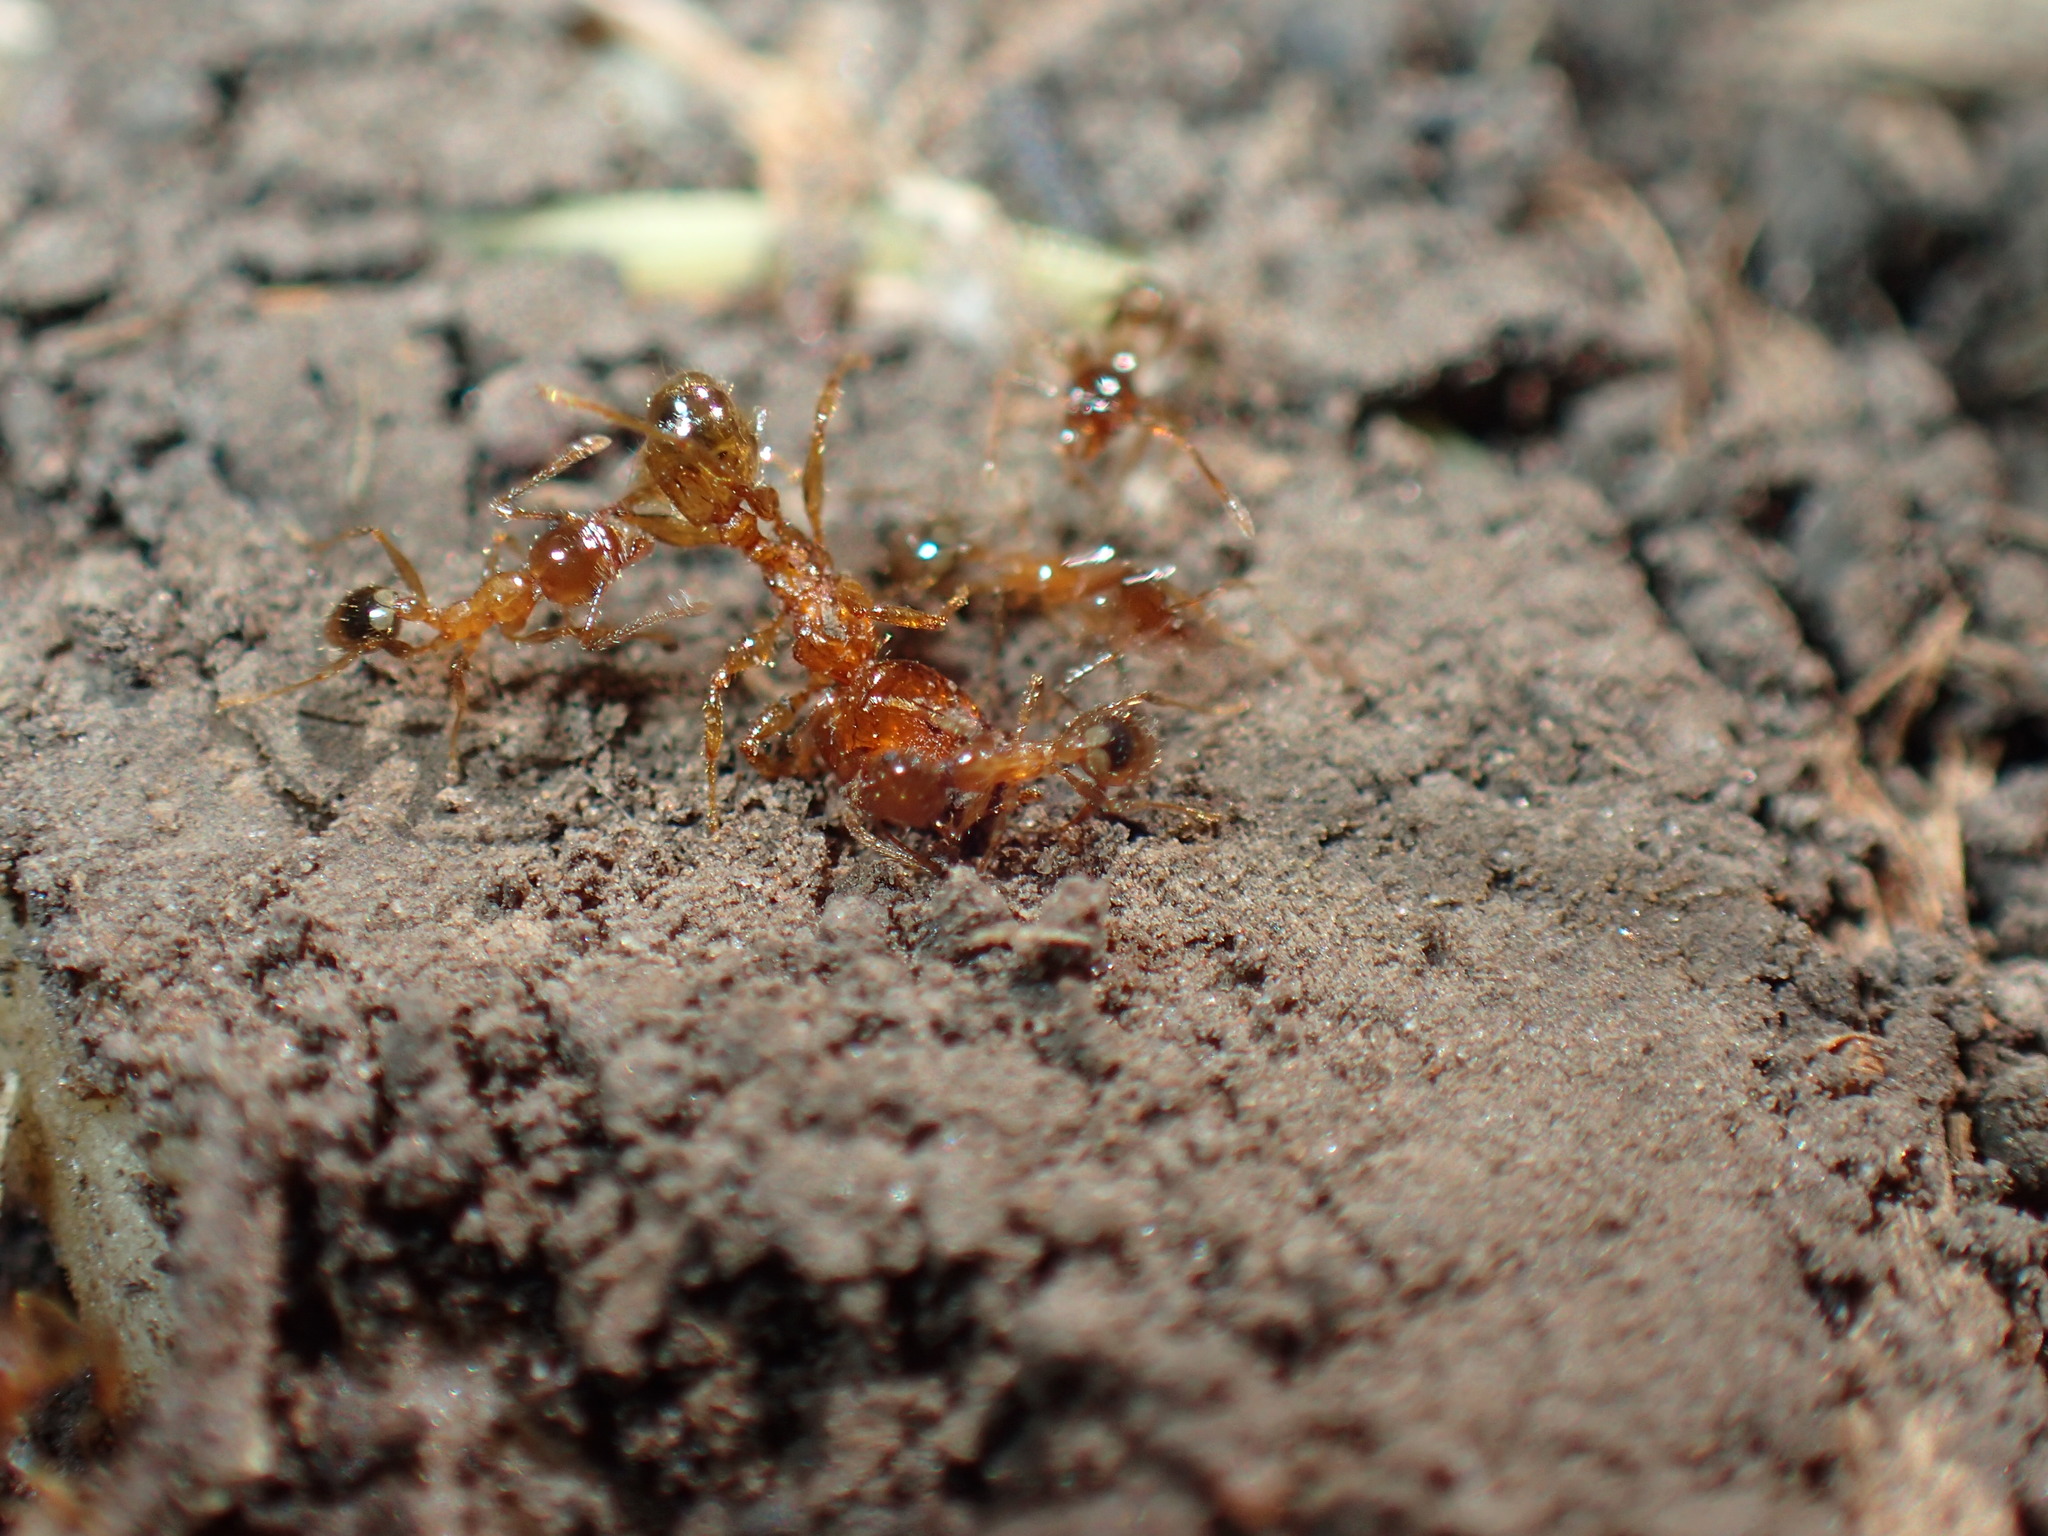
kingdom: Animalia
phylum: Arthropoda
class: Insecta
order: Hymenoptera
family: Formicidae
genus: Pheidole
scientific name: Pheidole megacephala
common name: Bigheaded ant
